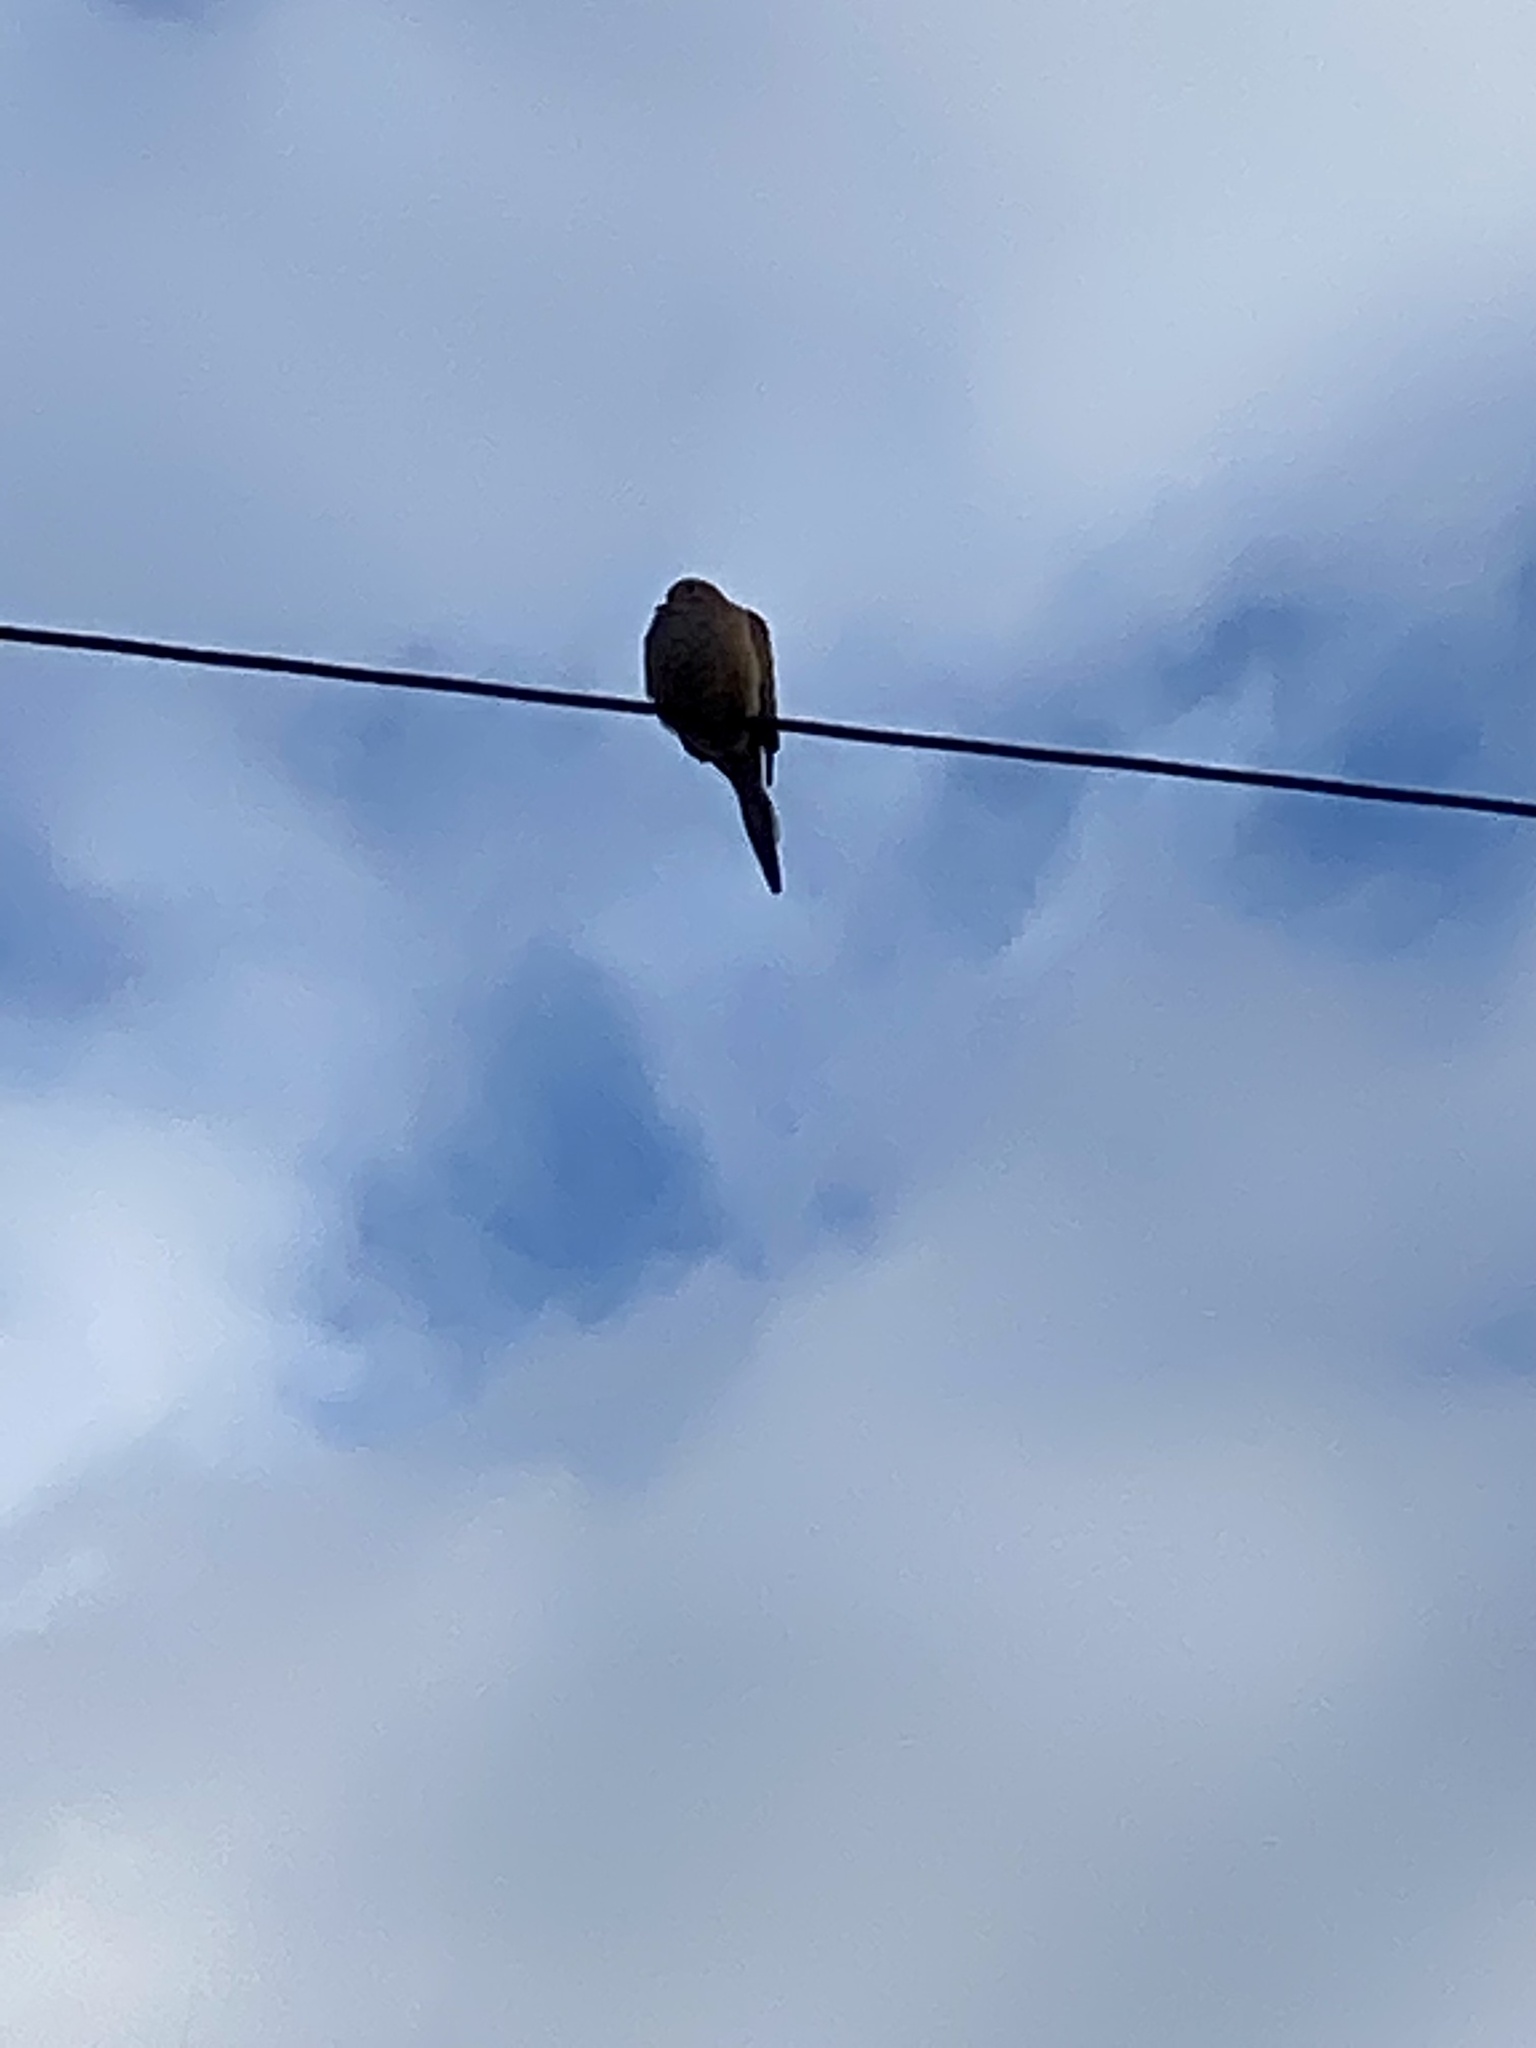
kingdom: Animalia
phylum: Chordata
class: Aves
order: Columbiformes
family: Columbidae
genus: Zenaida
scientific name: Zenaida macroura
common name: Mourning dove
